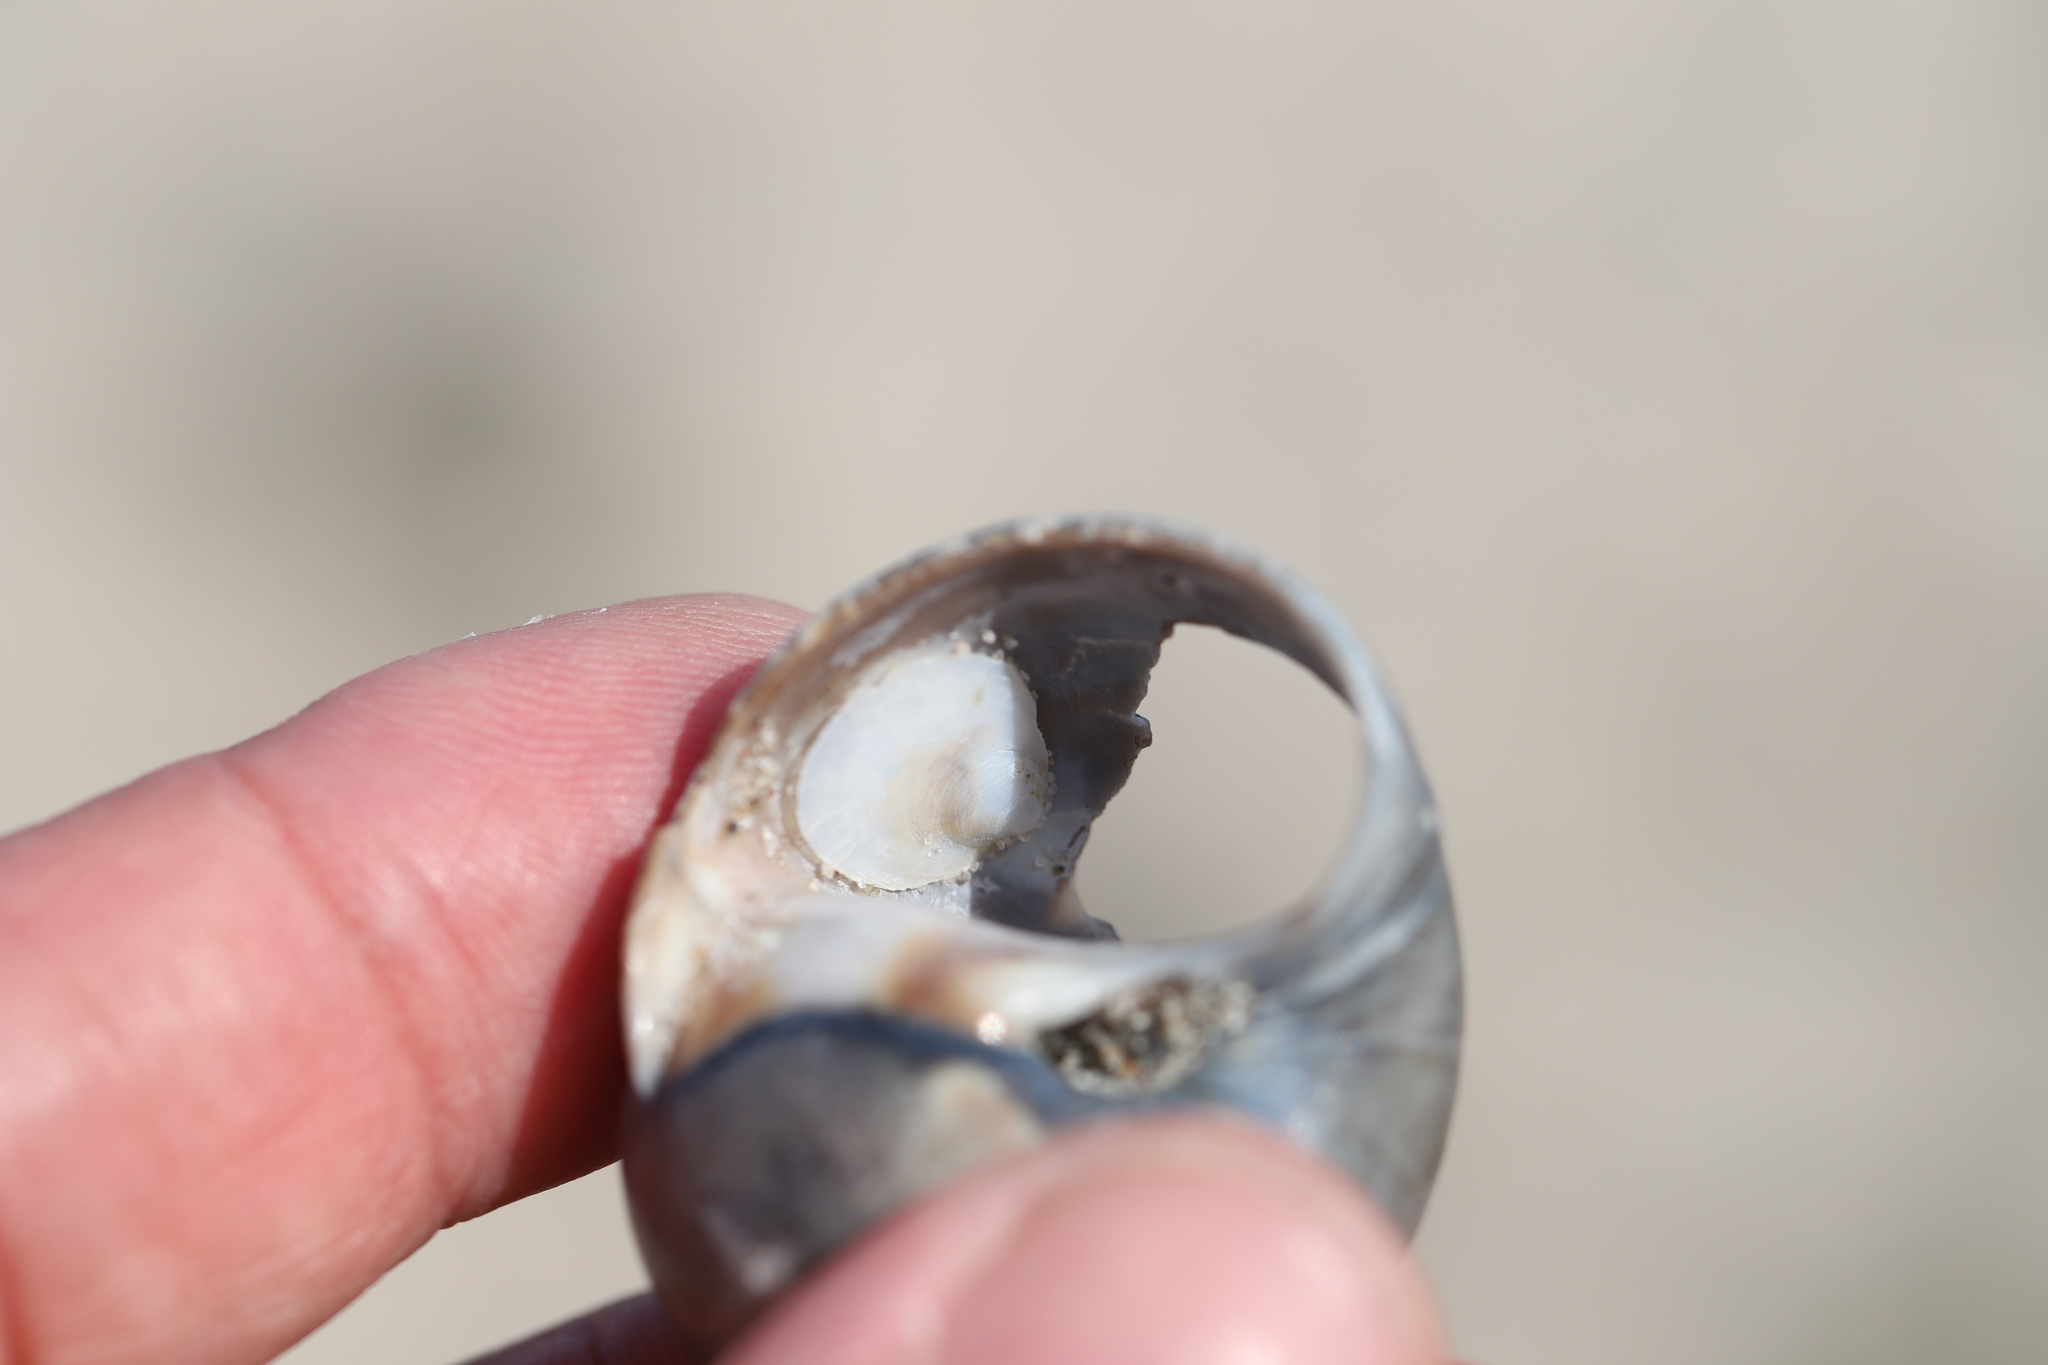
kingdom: Animalia
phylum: Mollusca
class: Gastropoda
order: Littorinimorpha
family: Calyptraeidae
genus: Crepidula
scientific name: Crepidula plana
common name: Eastern white slippersnail
